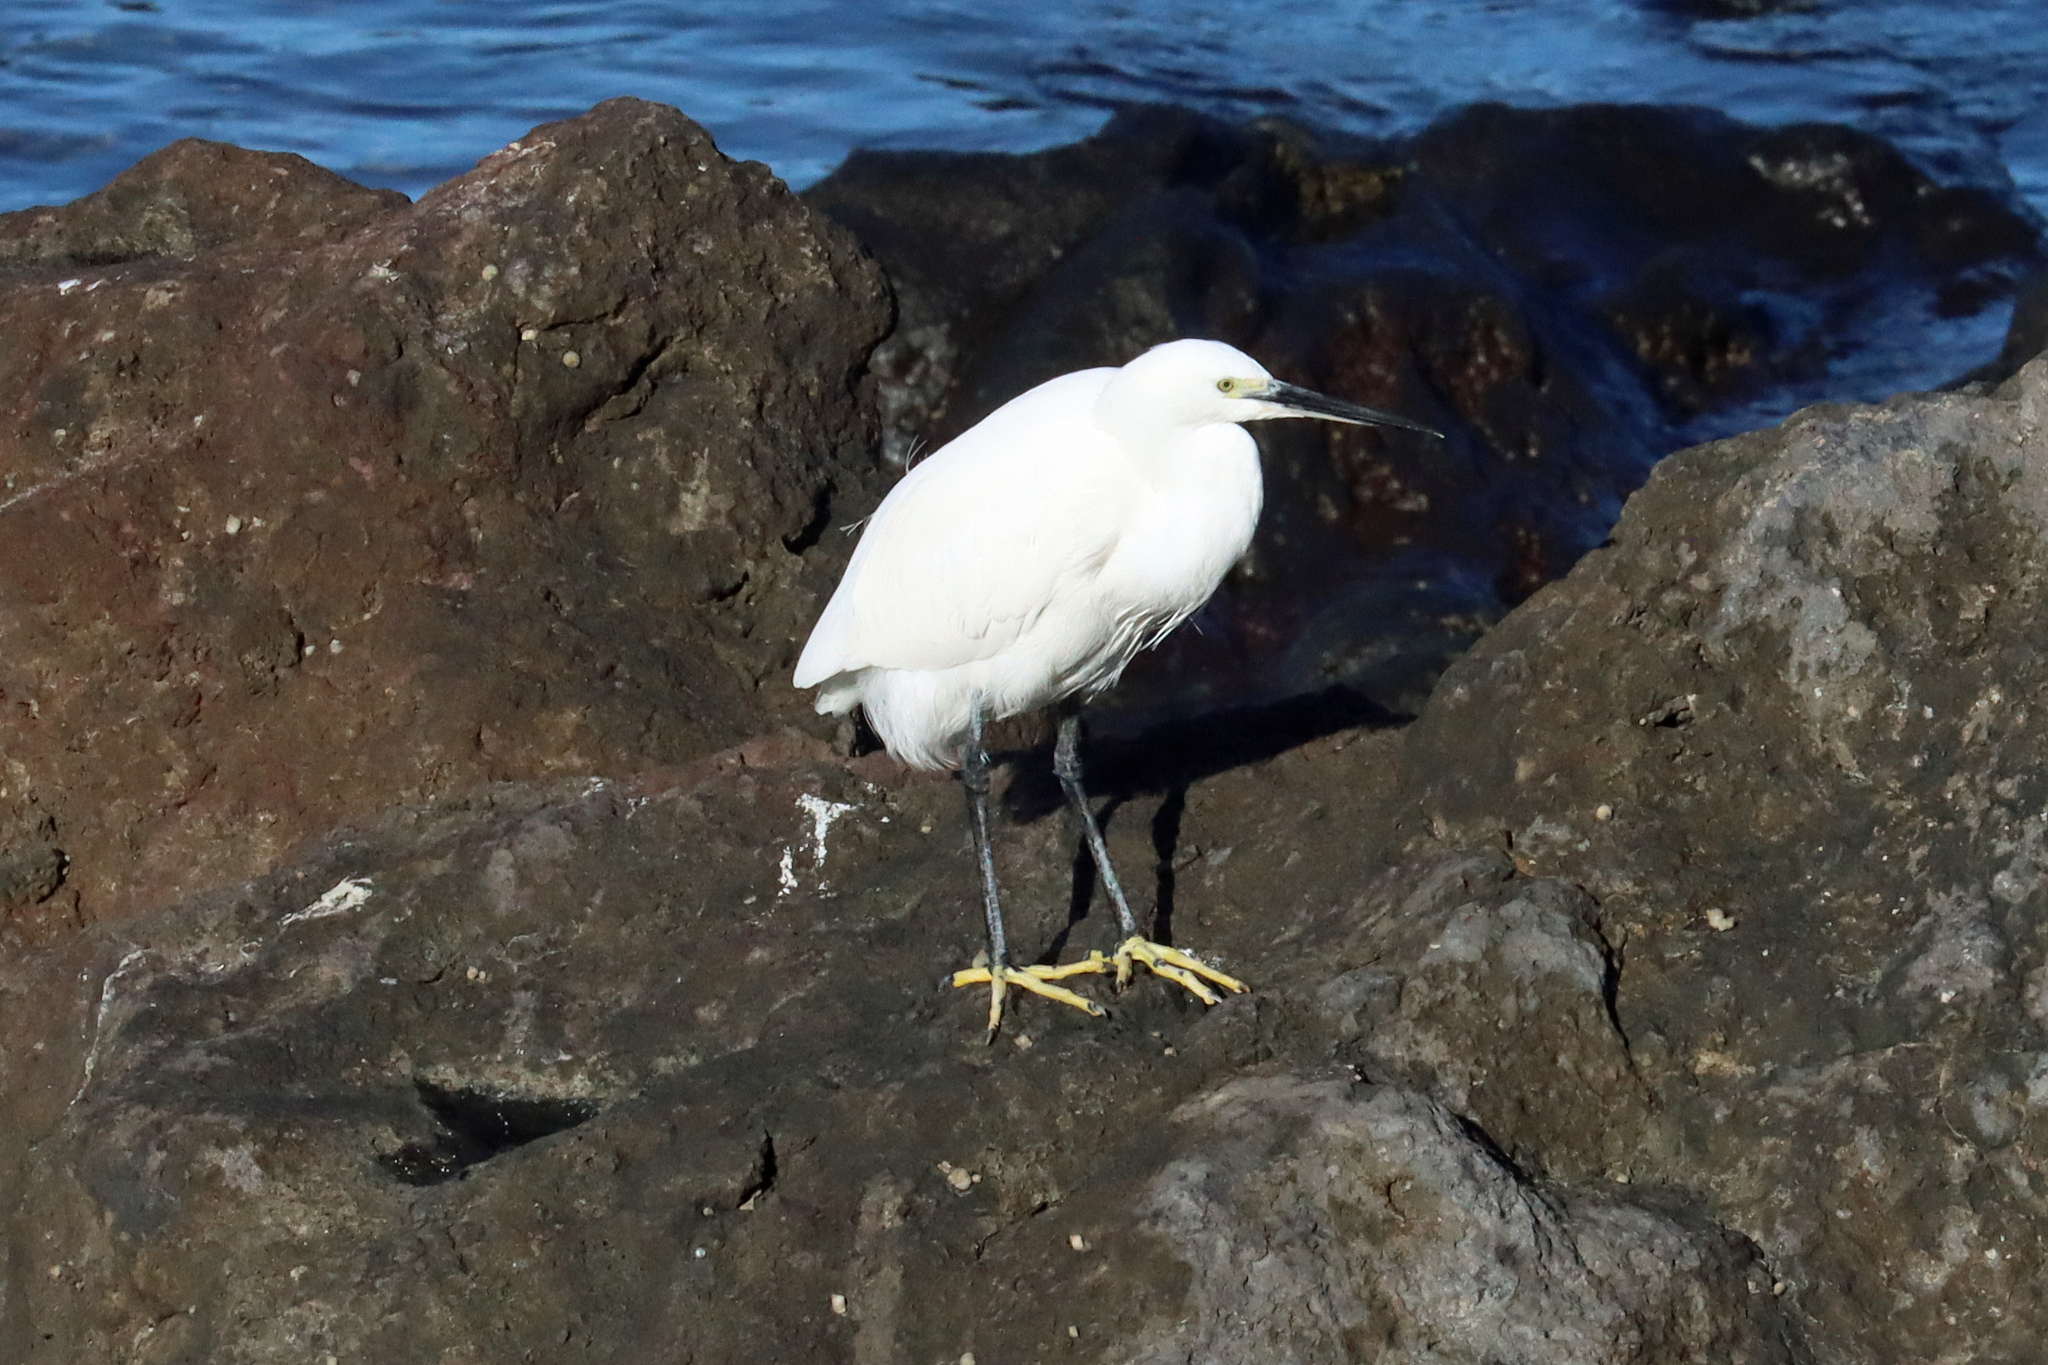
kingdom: Animalia
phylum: Chordata
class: Aves
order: Pelecaniformes
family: Ardeidae
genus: Egretta
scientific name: Egretta garzetta
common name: Little egret
